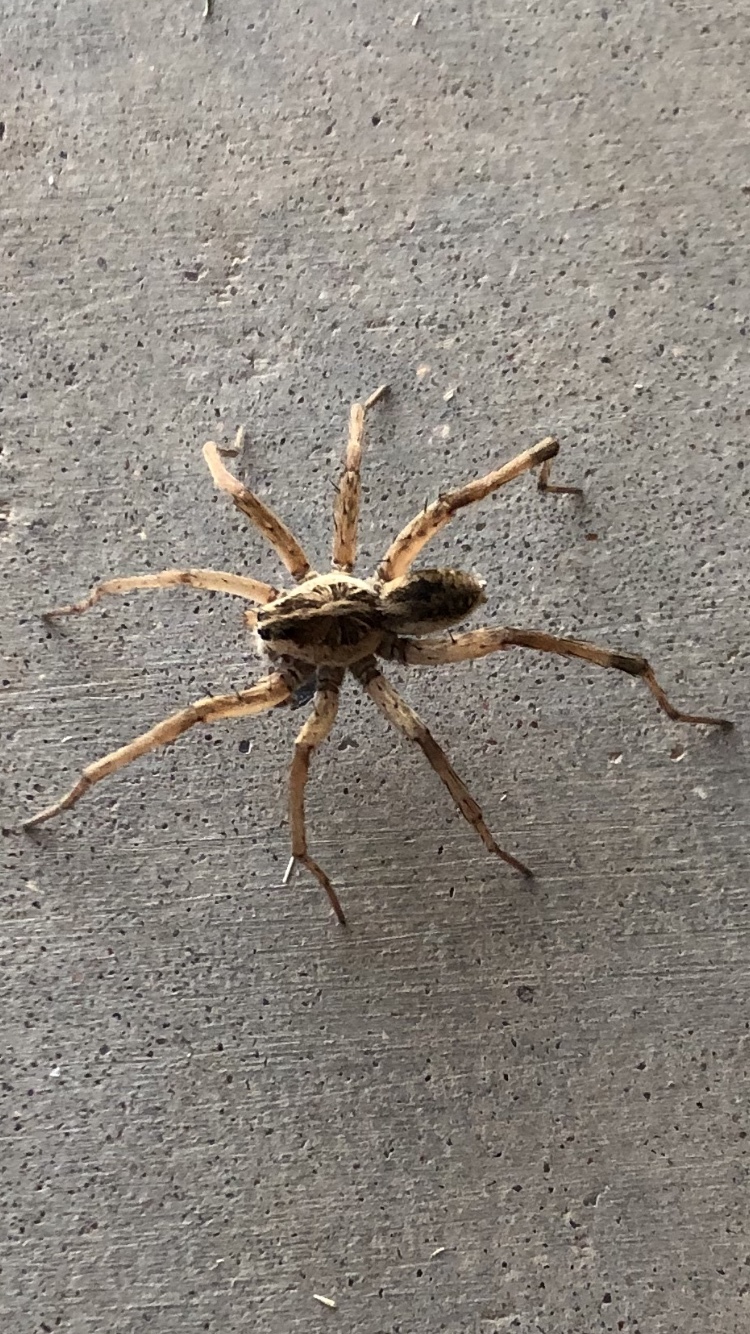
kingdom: Animalia
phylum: Arthropoda
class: Arachnida
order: Araneae
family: Lycosidae
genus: Hogna
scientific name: Hogna antelucana
